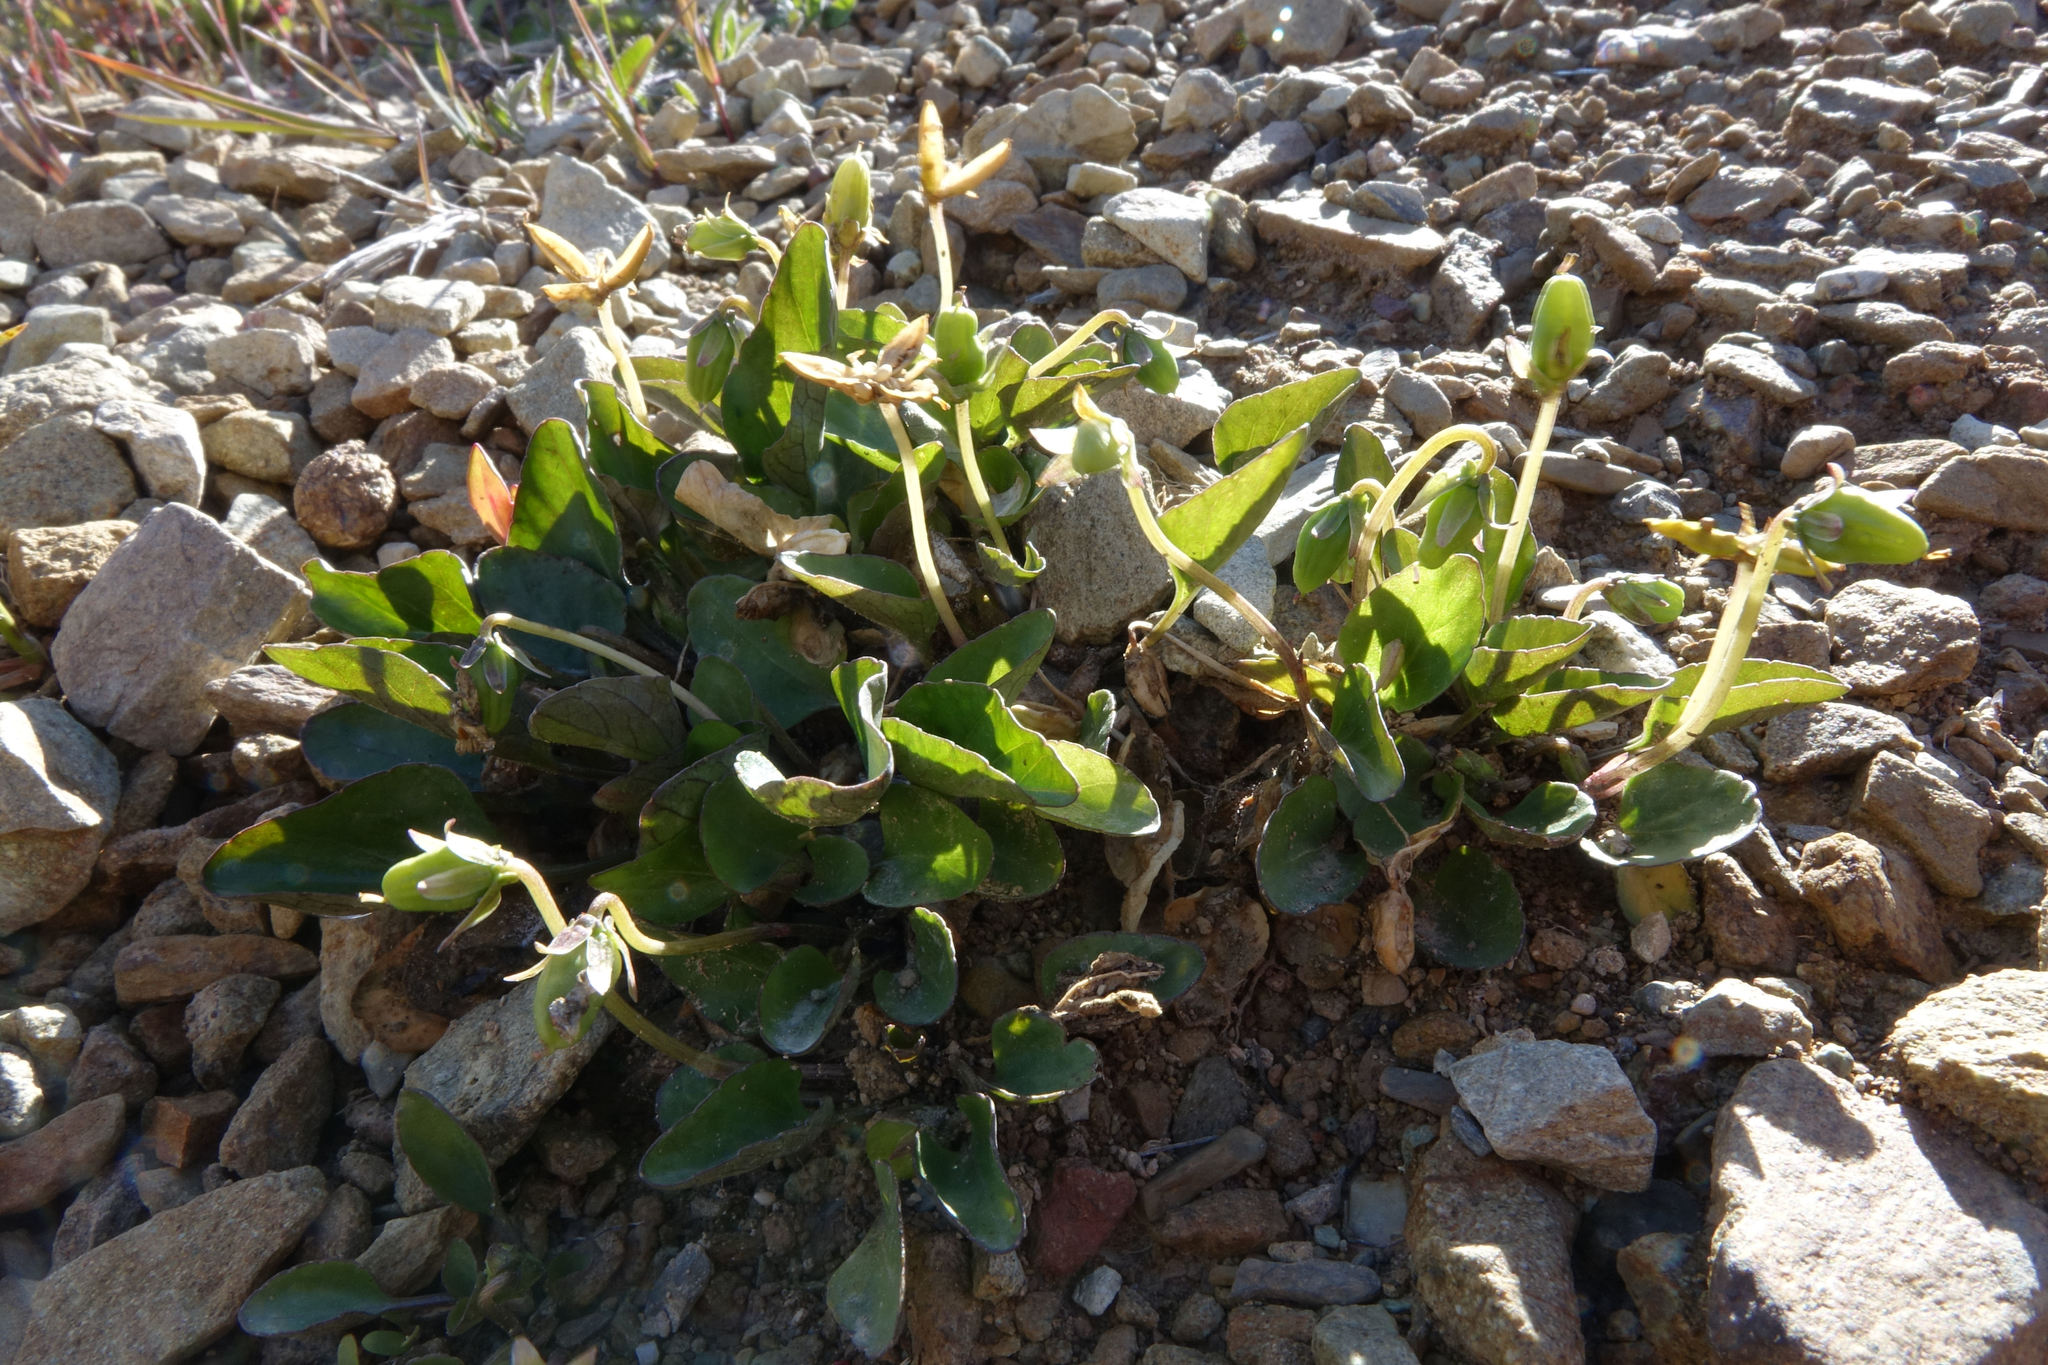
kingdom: Plantae
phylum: Tracheophyta
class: Magnoliopsida
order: Malpighiales
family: Violaceae
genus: Viola
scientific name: Viola cunninghamii
